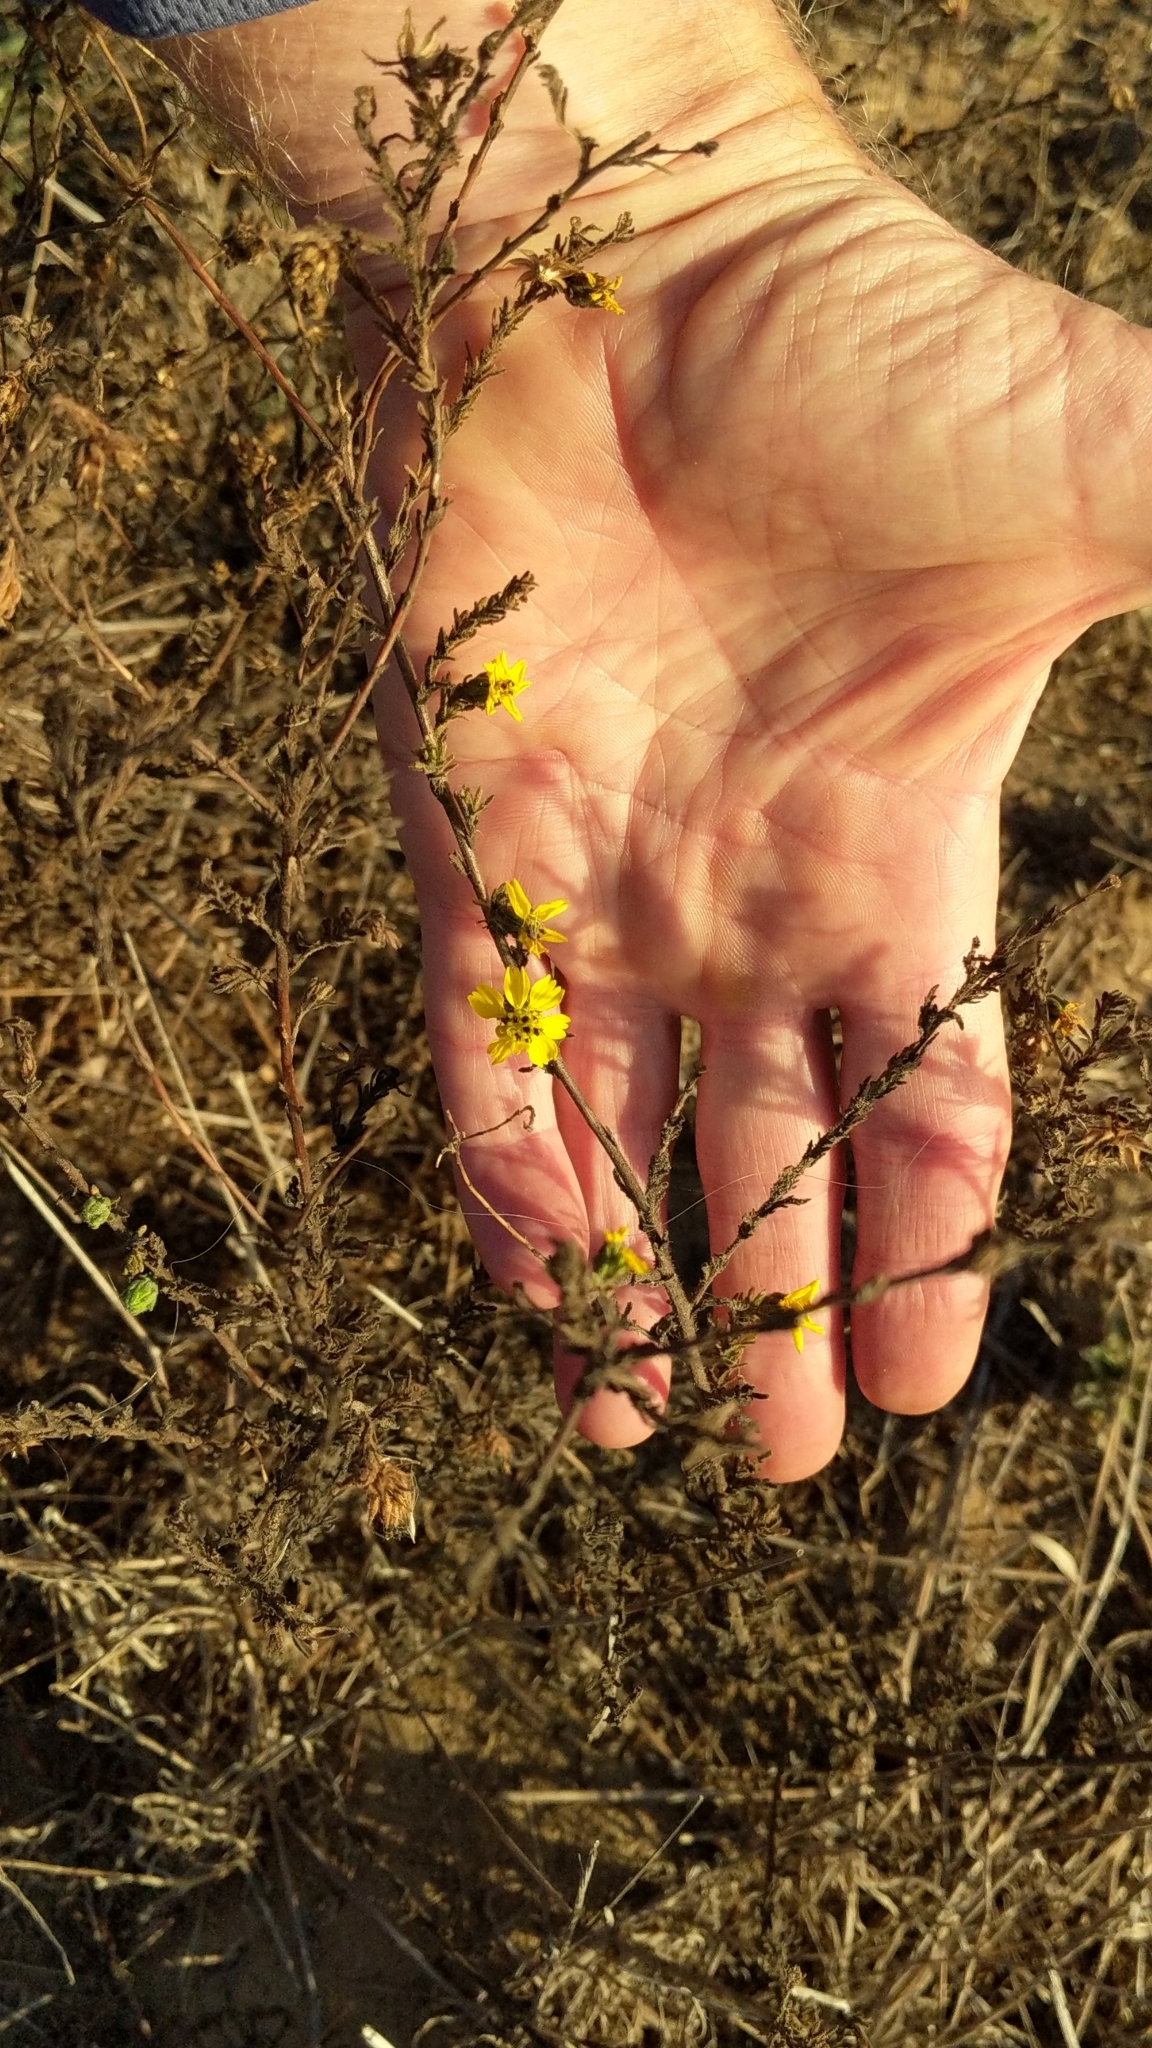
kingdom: Plantae
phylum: Tracheophyta
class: Magnoliopsida
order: Asterales
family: Asteraceae
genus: Deinandra
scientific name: Deinandra increscens
